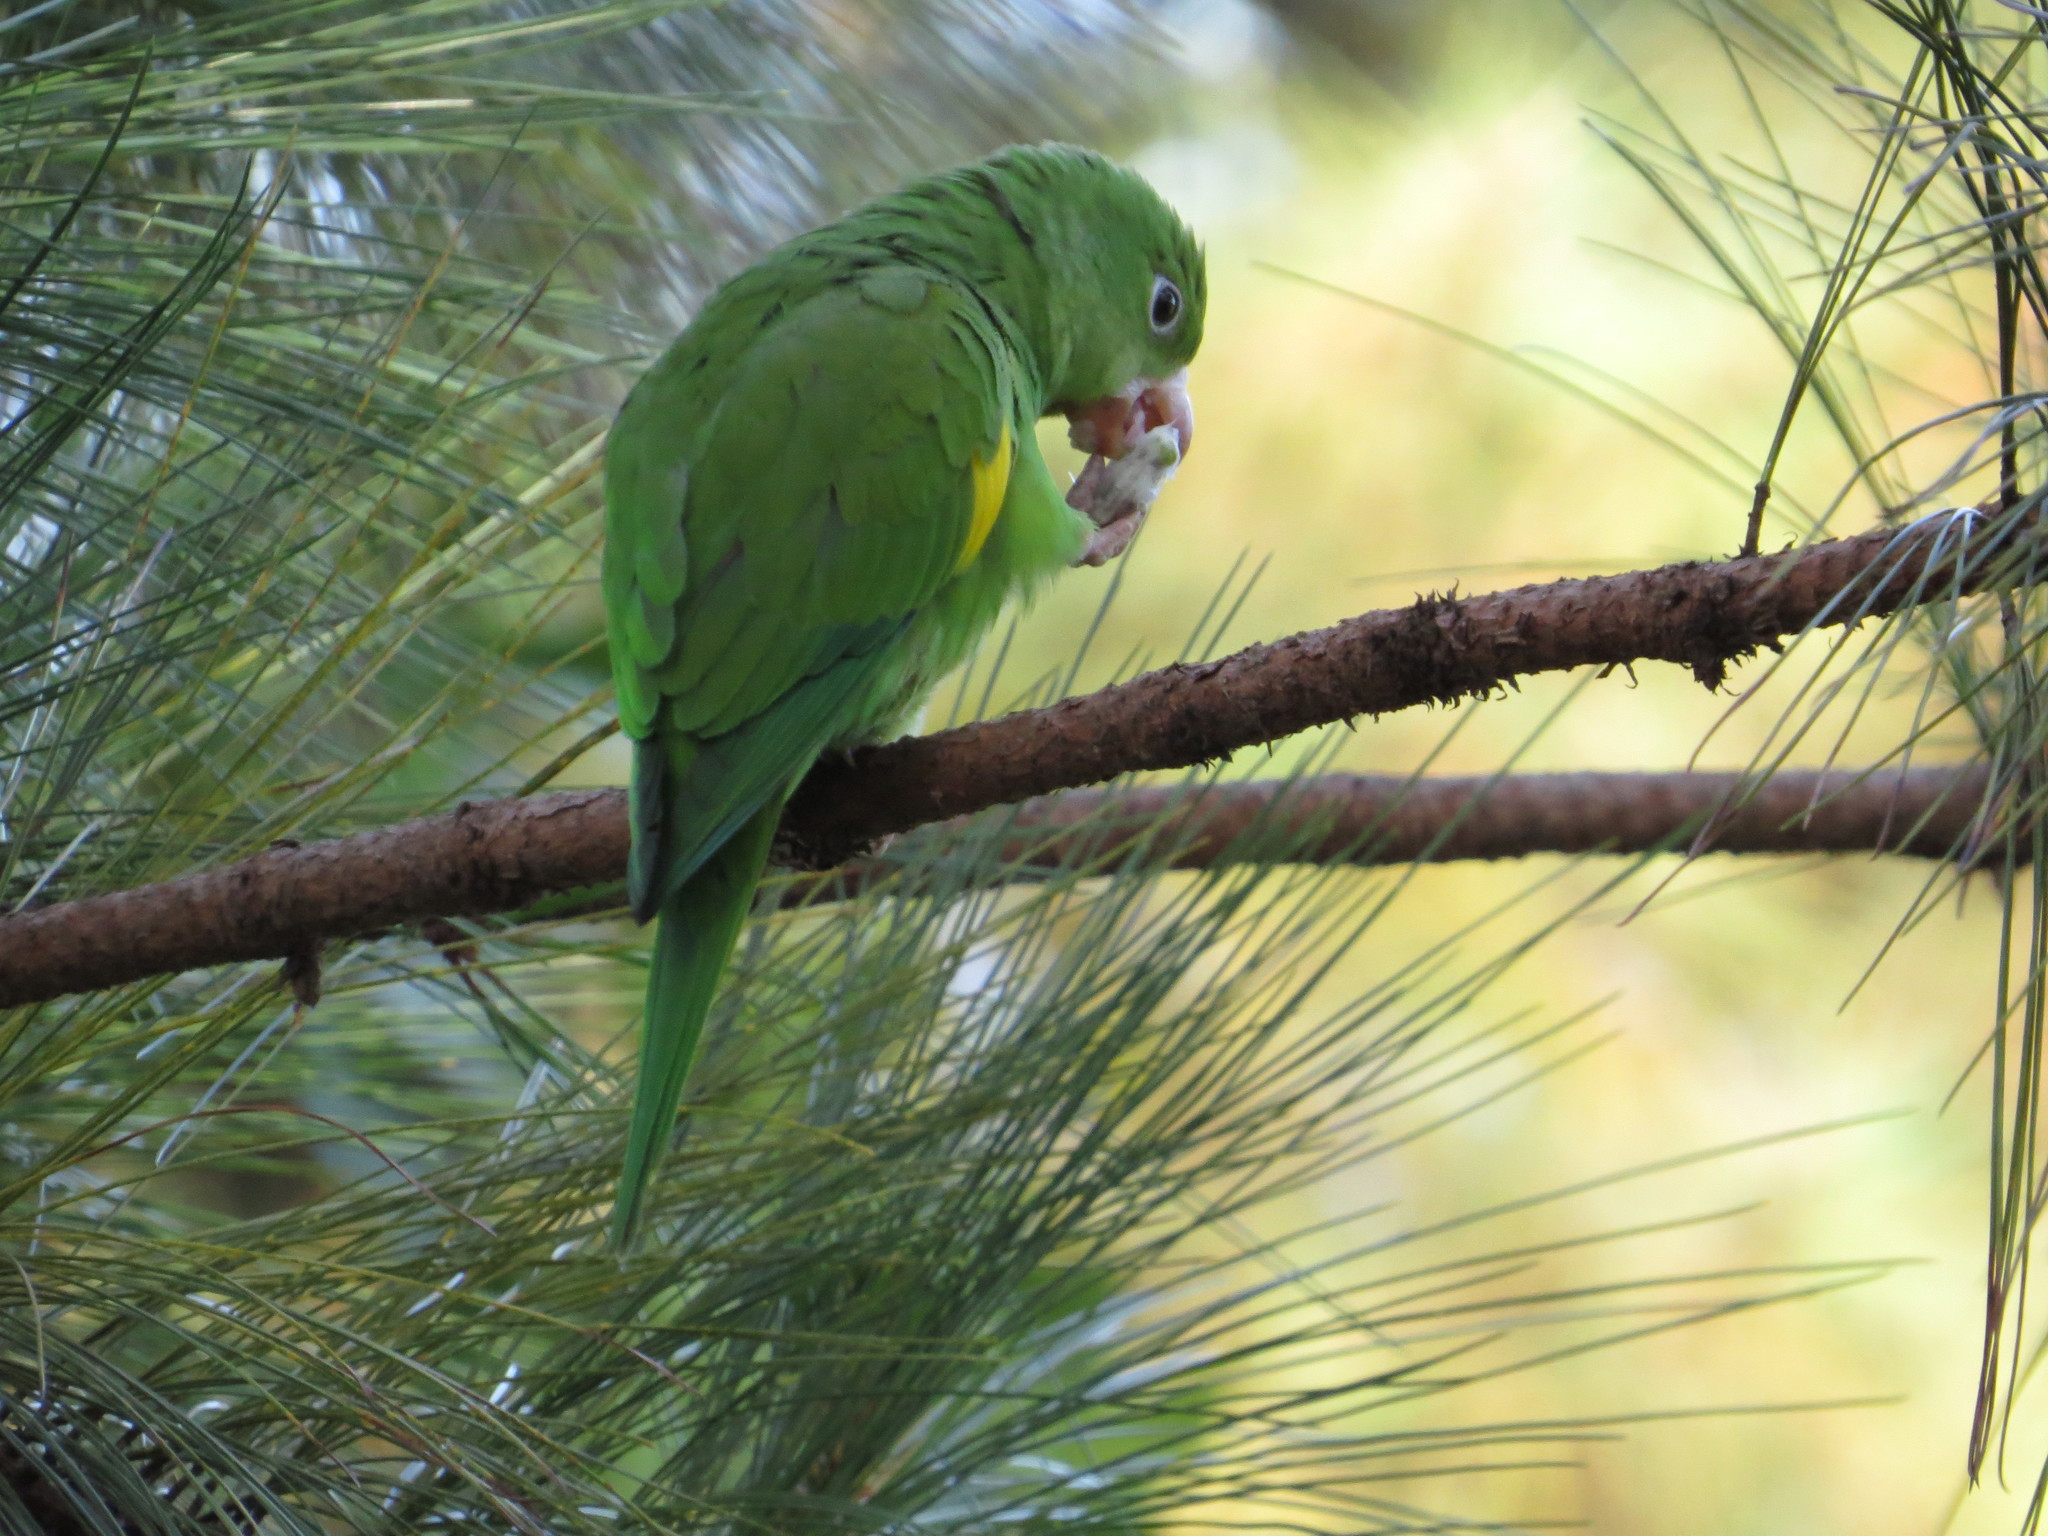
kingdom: Animalia
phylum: Chordata
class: Aves
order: Psittaciformes
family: Psittacidae
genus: Brotogeris
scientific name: Brotogeris chiriri
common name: Yellow-chevroned parakeet
